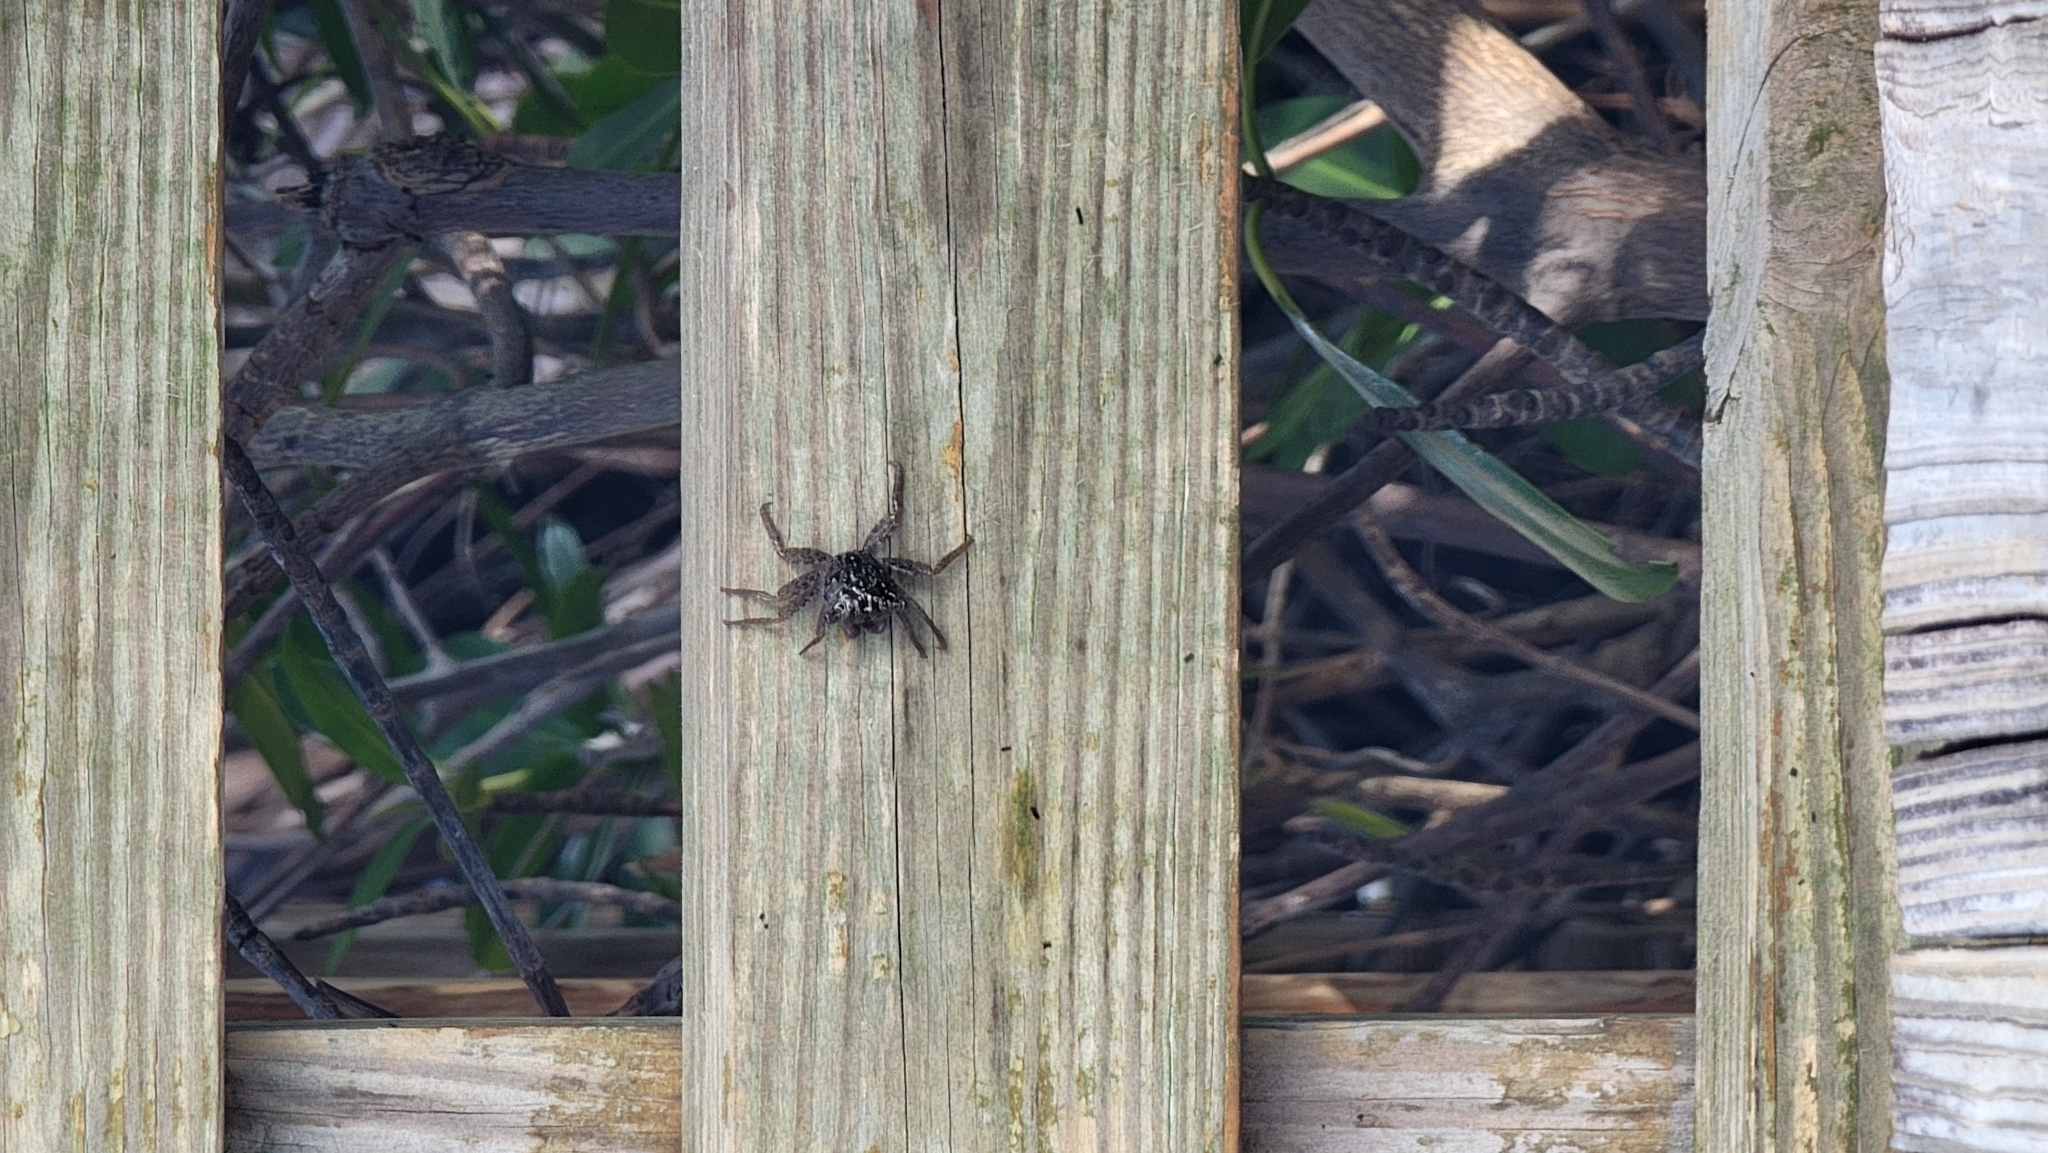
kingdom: Animalia
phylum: Arthropoda
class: Malacostraca
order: Decapoda
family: Sesarmidae
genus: Aratus
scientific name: Aratus pisonii
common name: Mangrove crab
